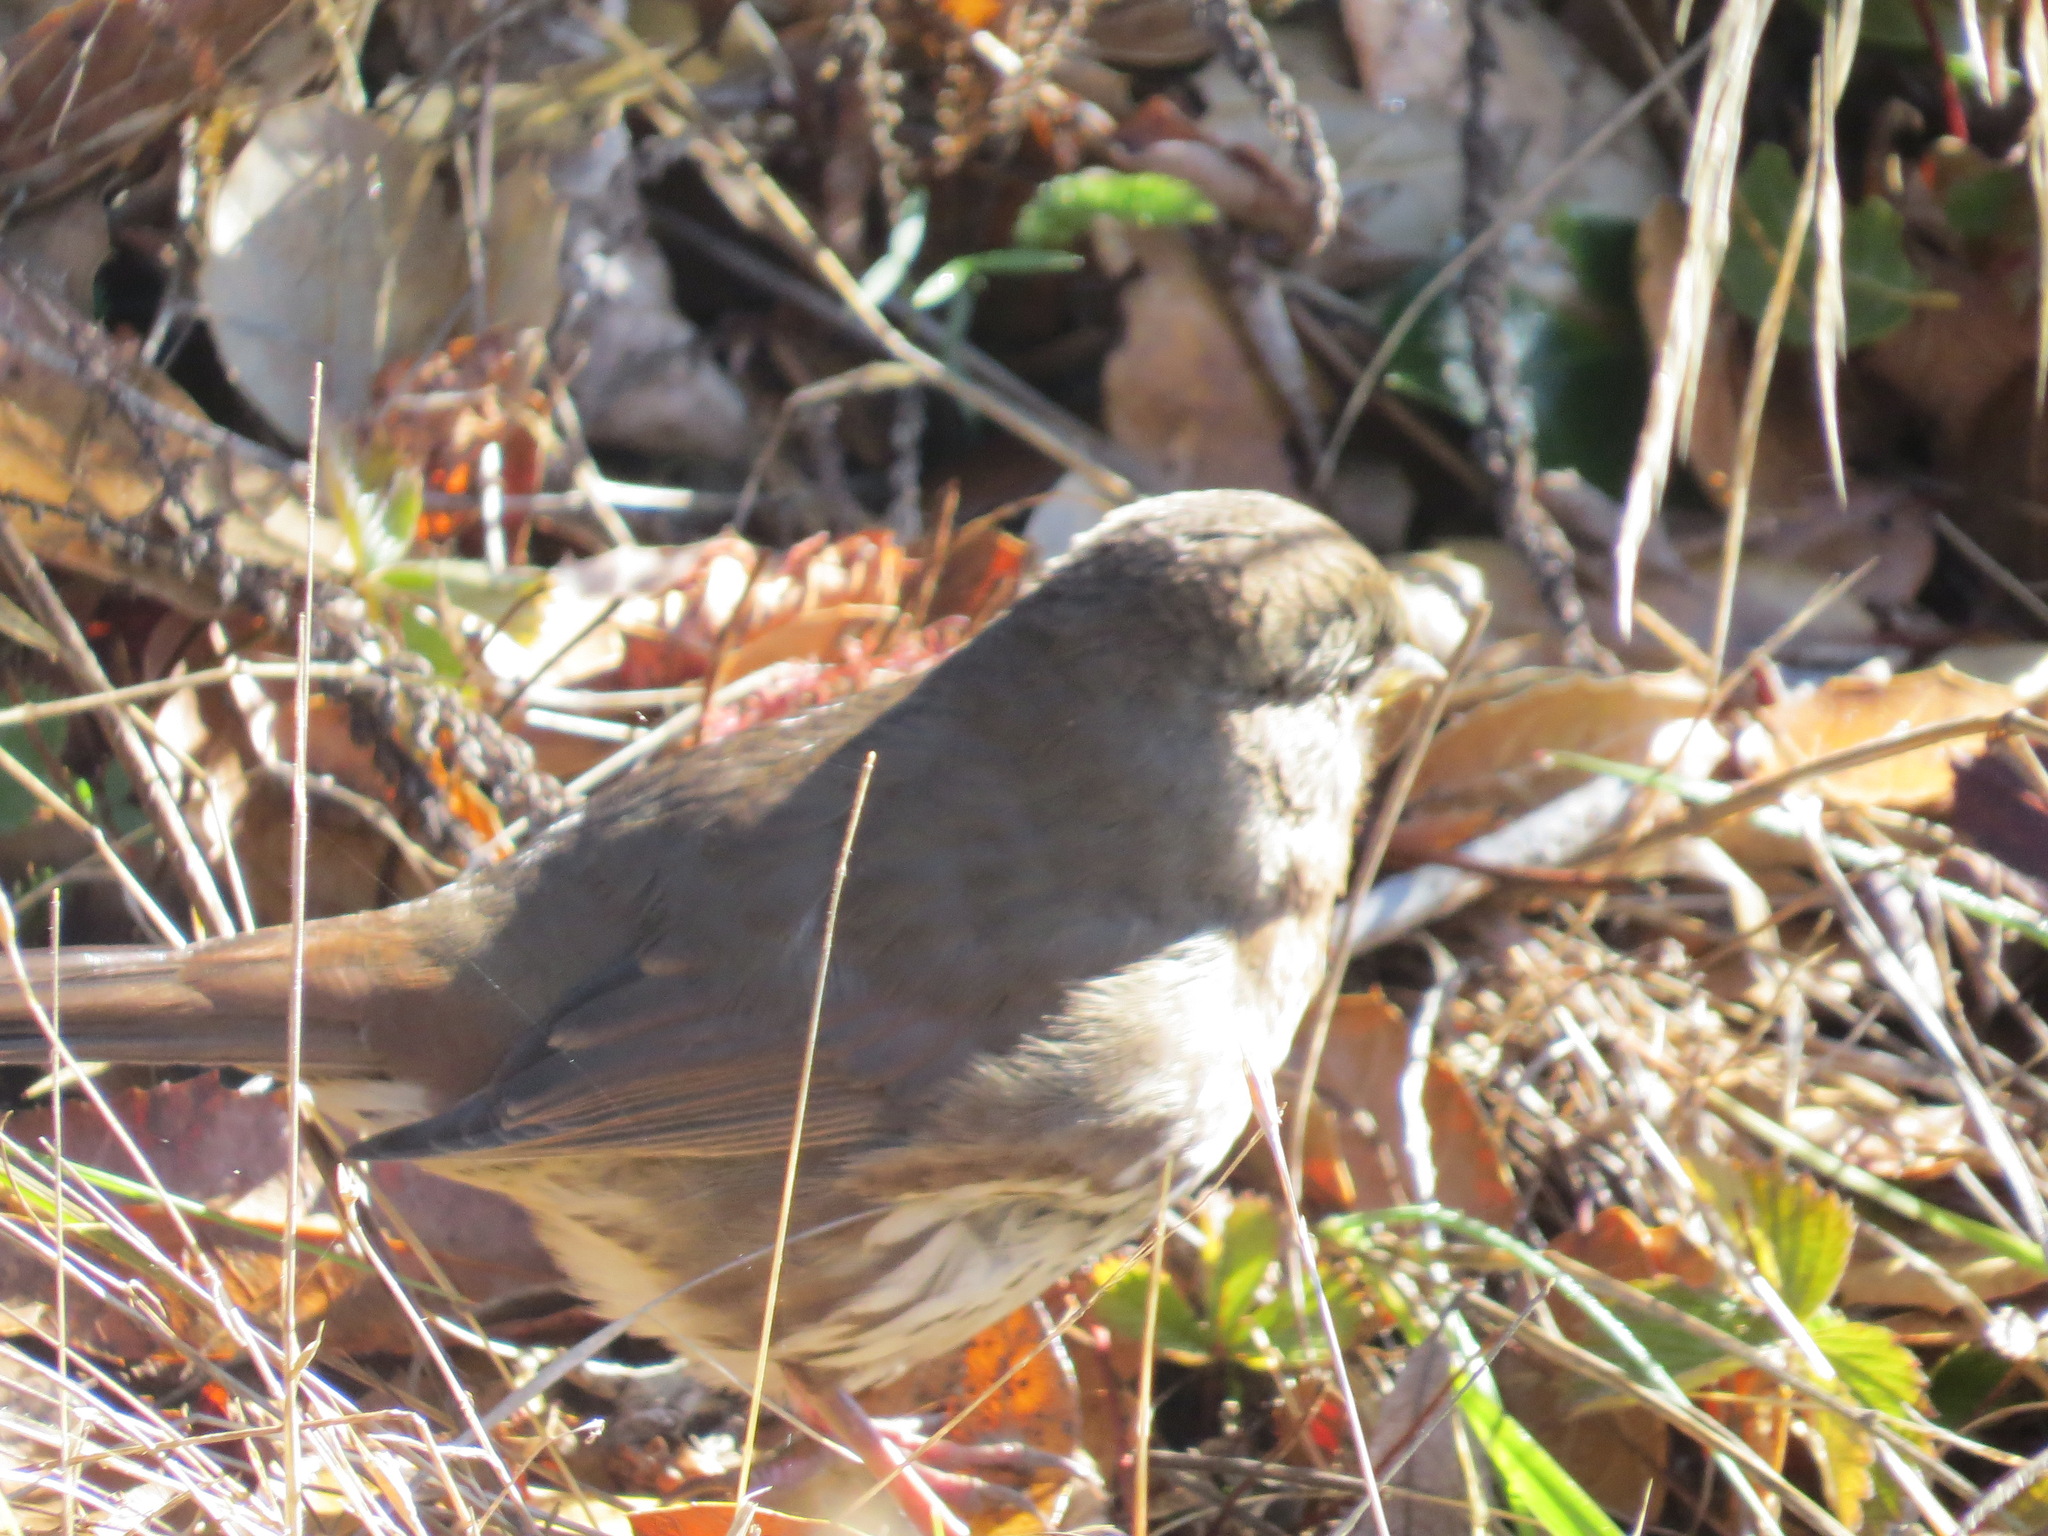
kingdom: Animalia
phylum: Chordata
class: Aves
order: Passeriformes
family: Passerellidae
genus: Passerella
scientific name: Passerella iliaca
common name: Fox sparrow
